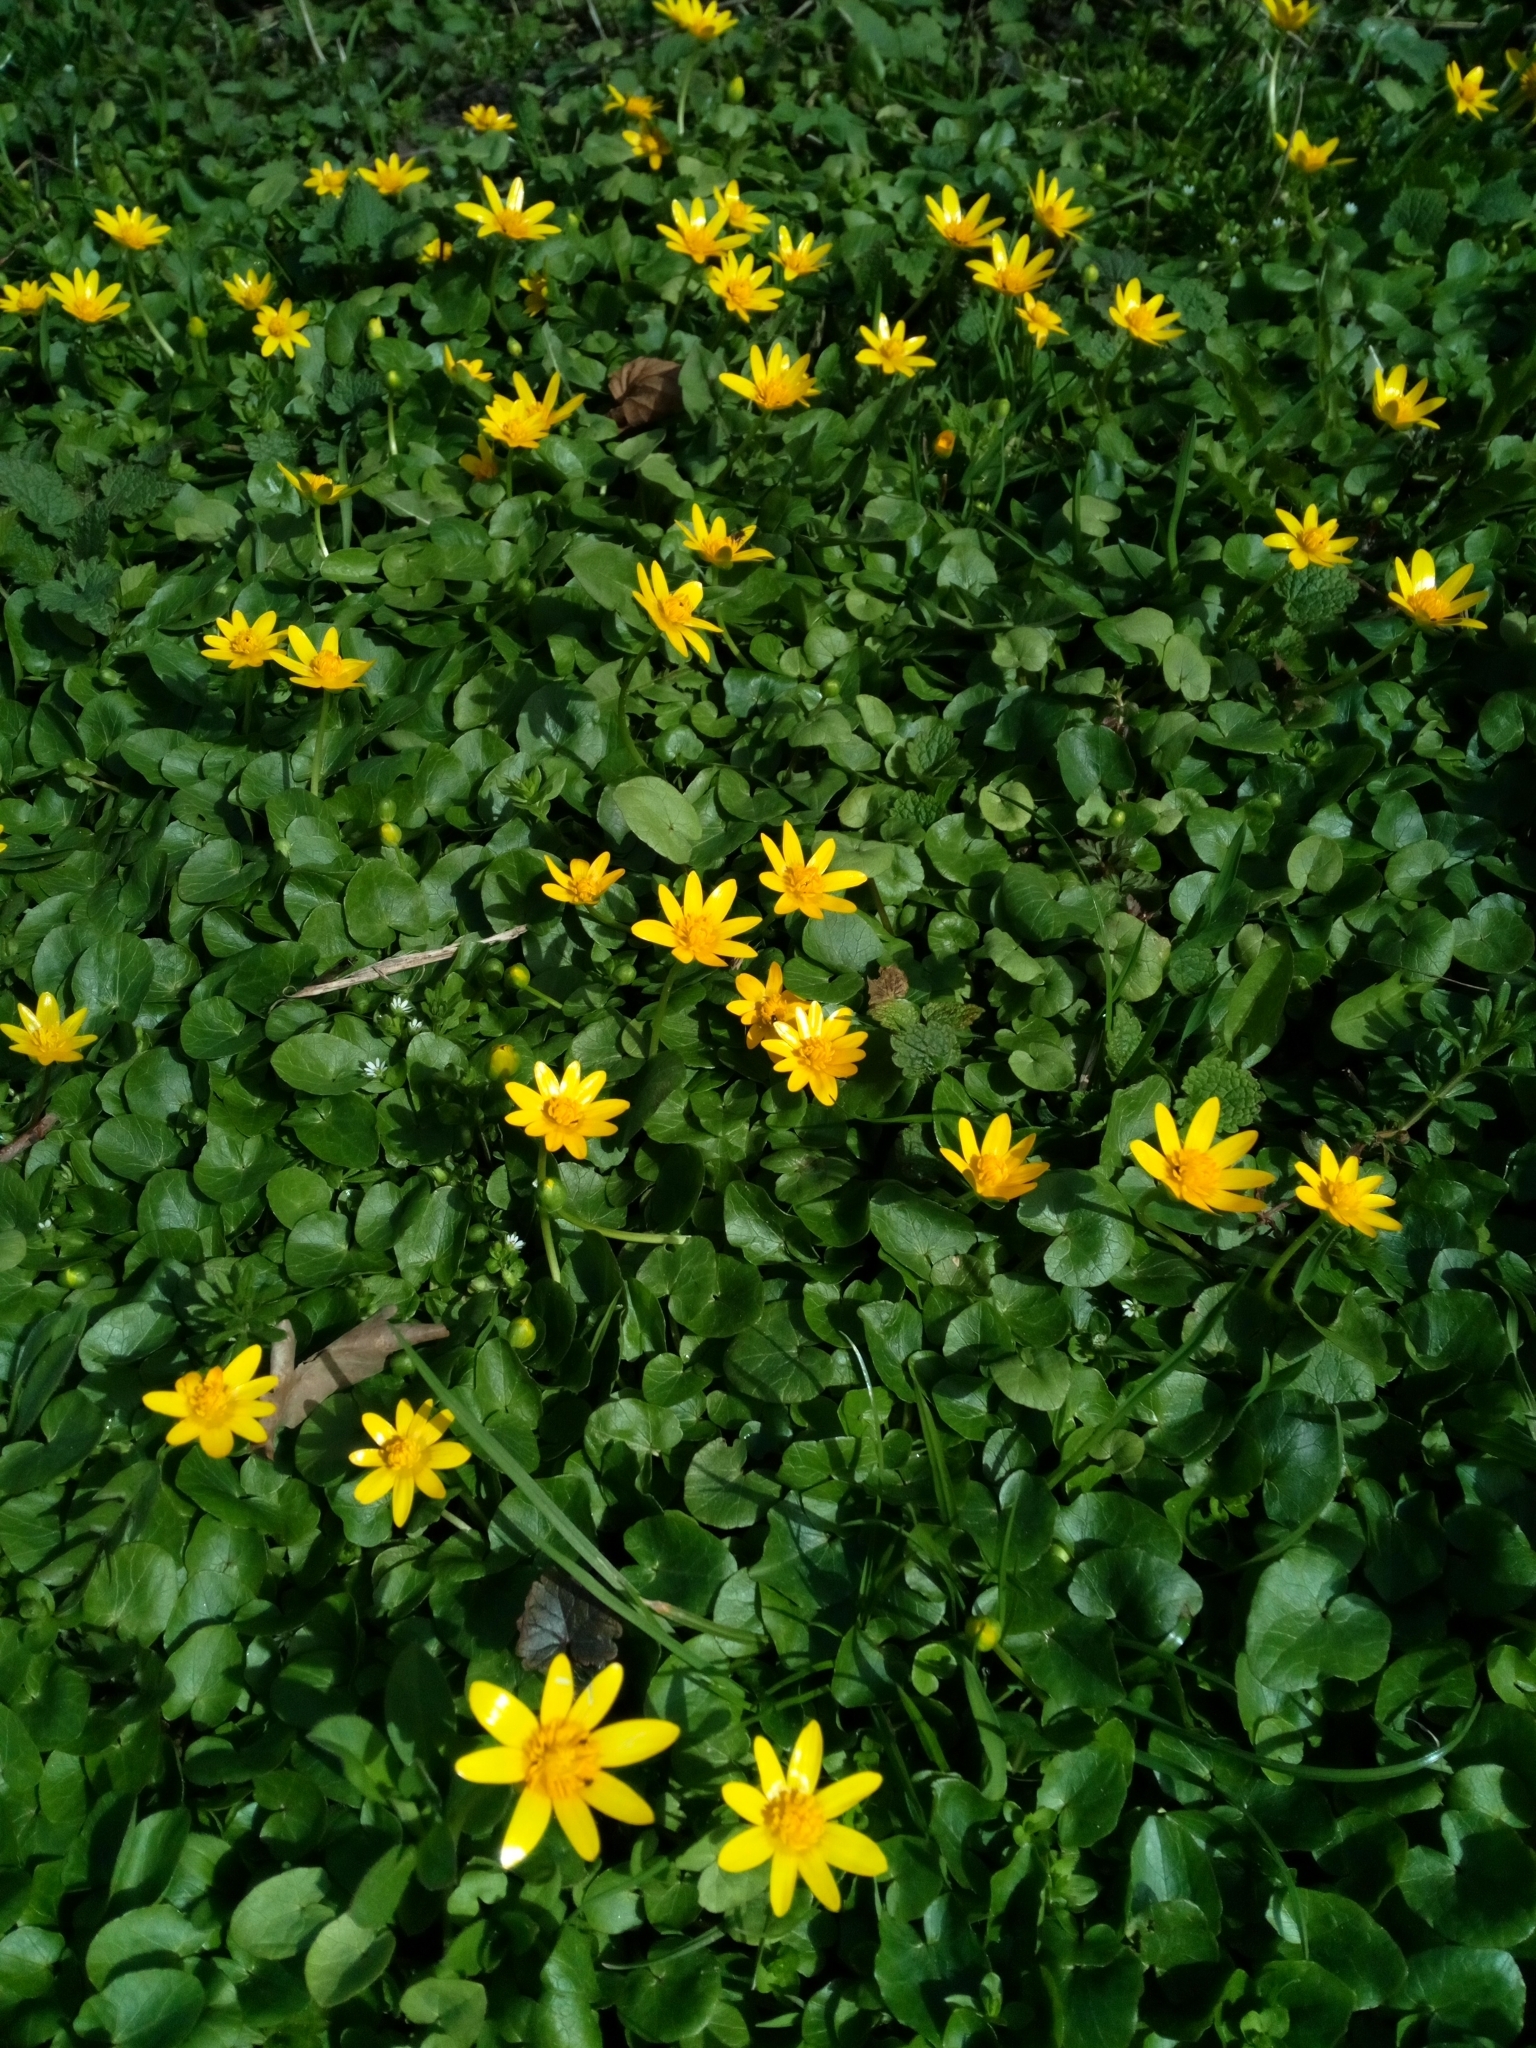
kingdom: Plantae
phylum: Tracheophyta
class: Magnoliopsida
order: Ranunculales
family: Ranunculaceae
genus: Ficaria
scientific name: Ficaria verna
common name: Lesser celandine
